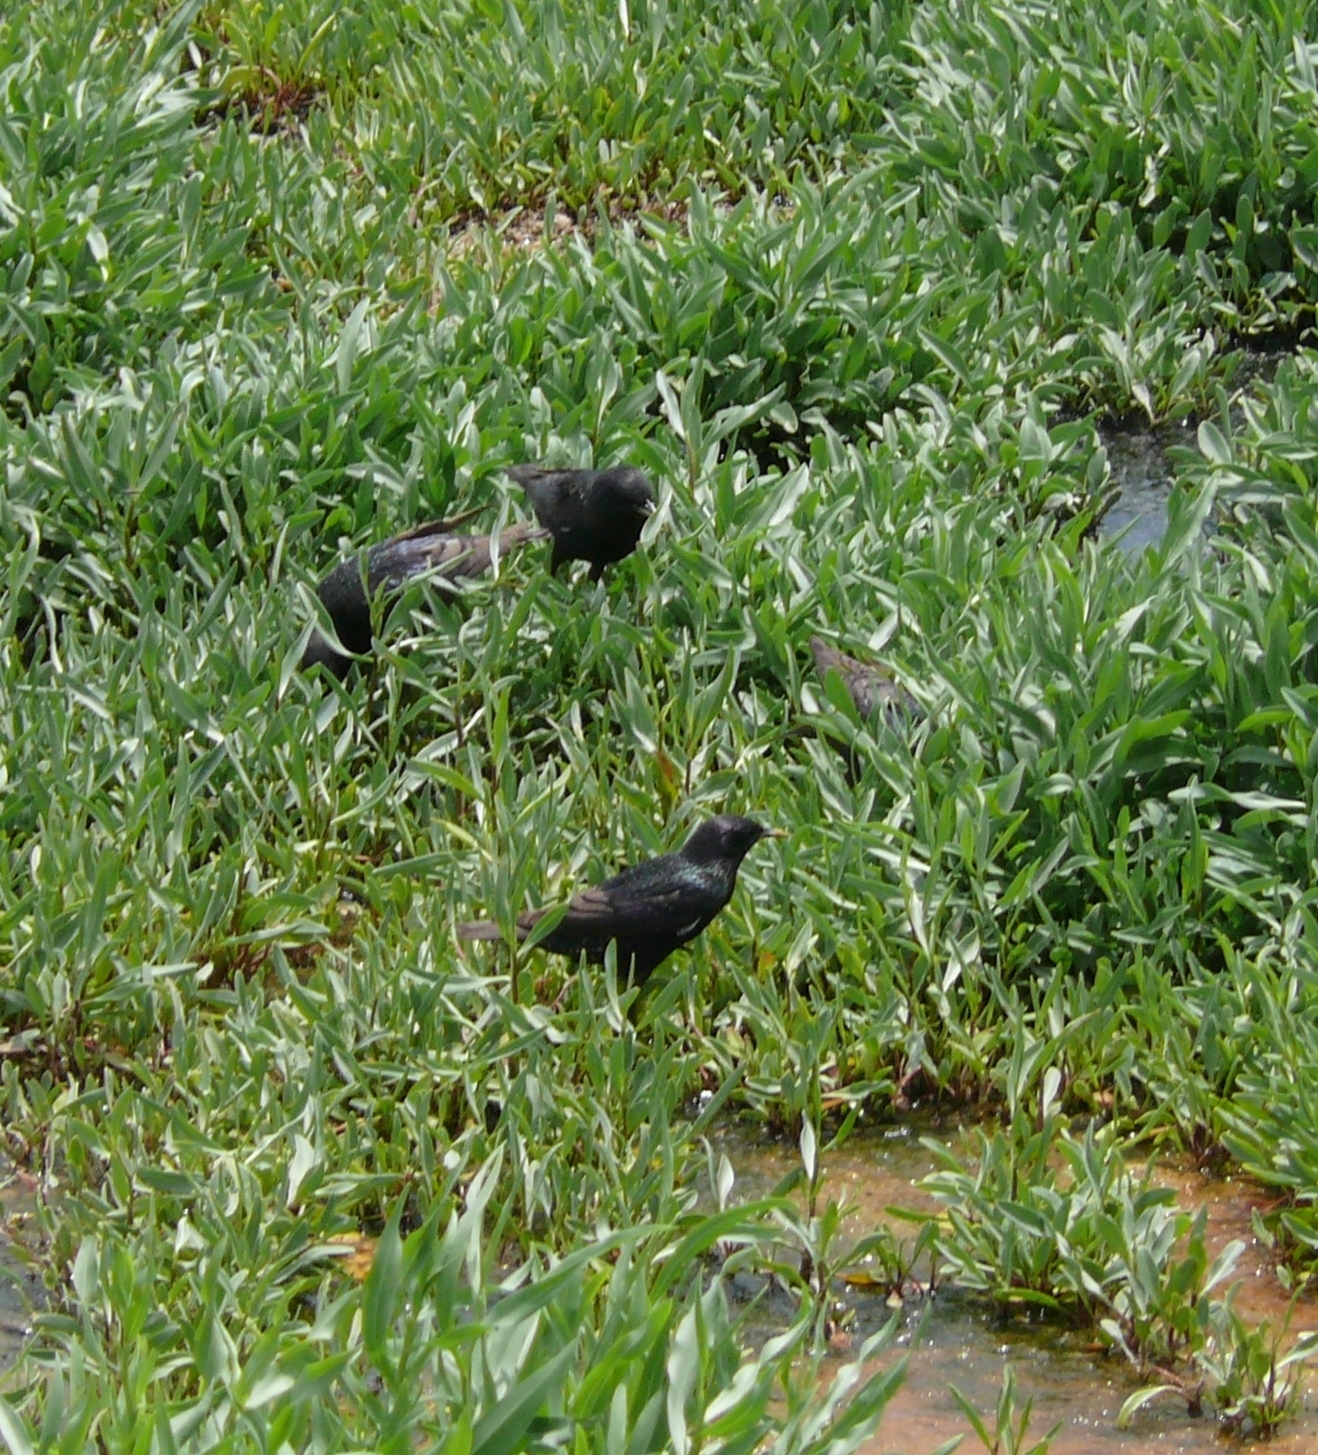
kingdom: Animalia
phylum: Chordata
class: Aves
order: Passeriformes
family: Sturnidae
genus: Sturnus
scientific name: Sturnus vulgaris
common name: Common starling
